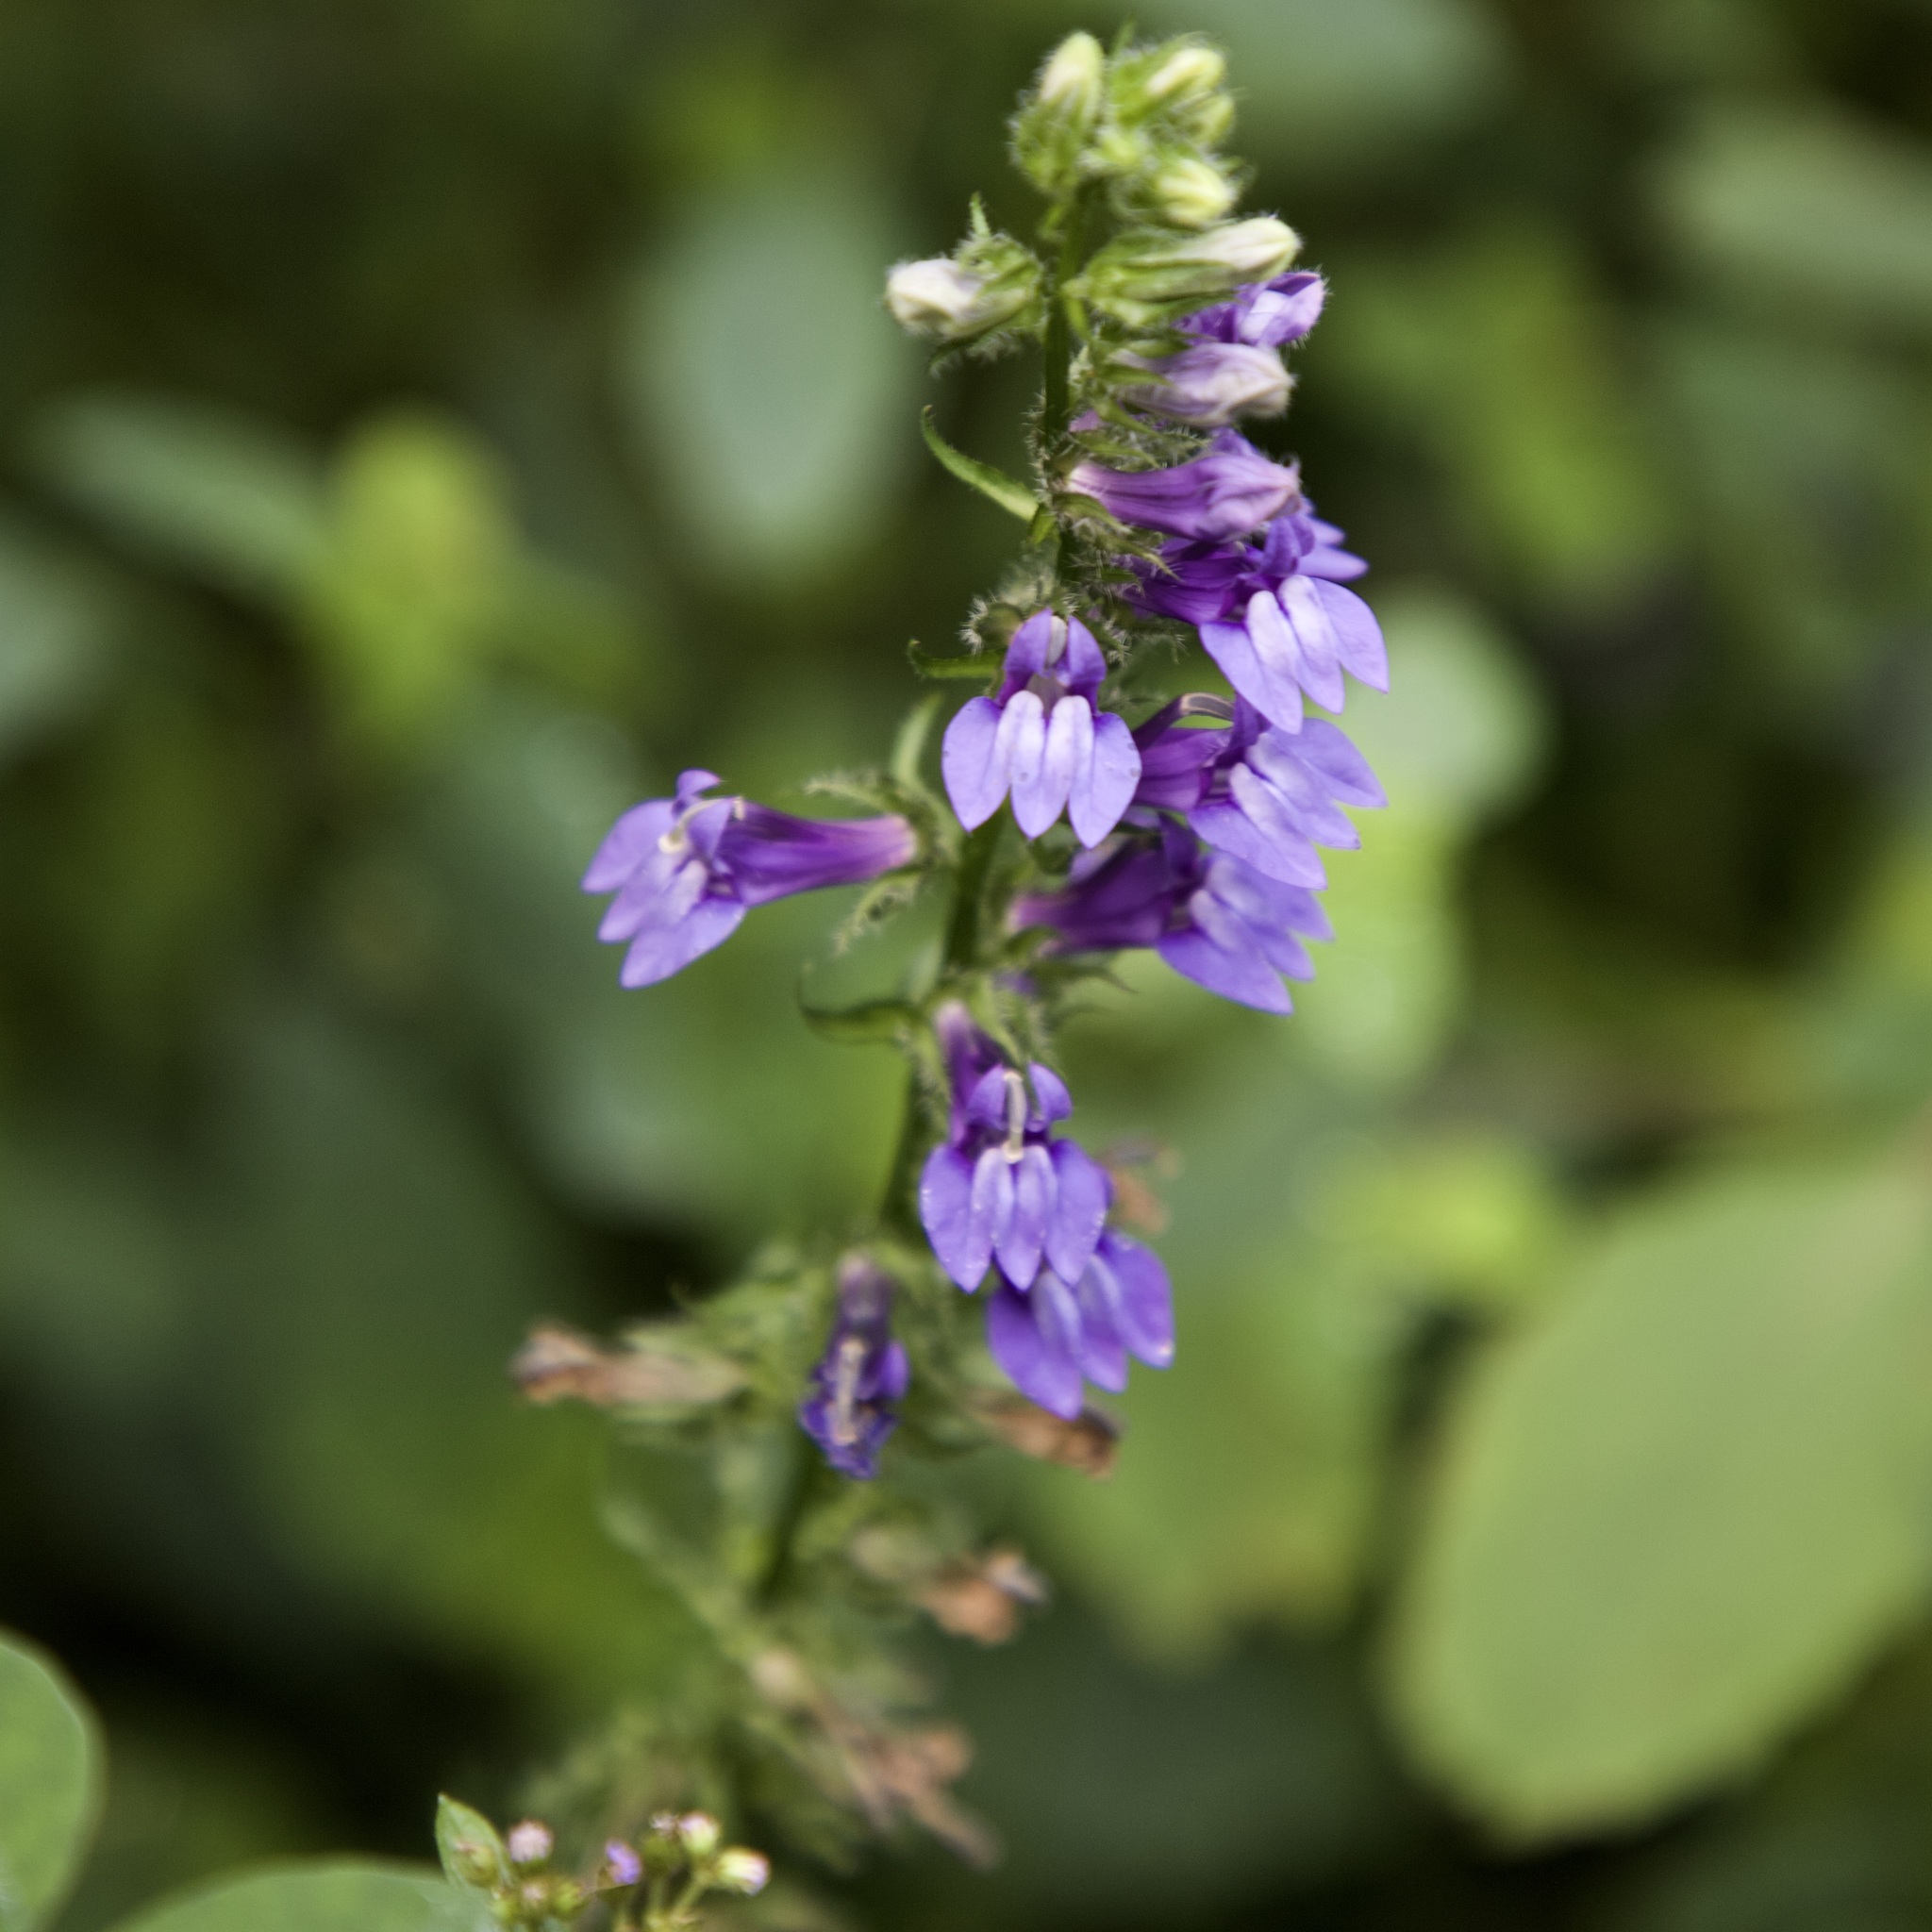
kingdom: Plantae
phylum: Tracheophyta
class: Magnoliopsida
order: Asterales
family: Campanulaceae
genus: Lobelia
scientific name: Lobelia siphilitica
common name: Great lobelia
